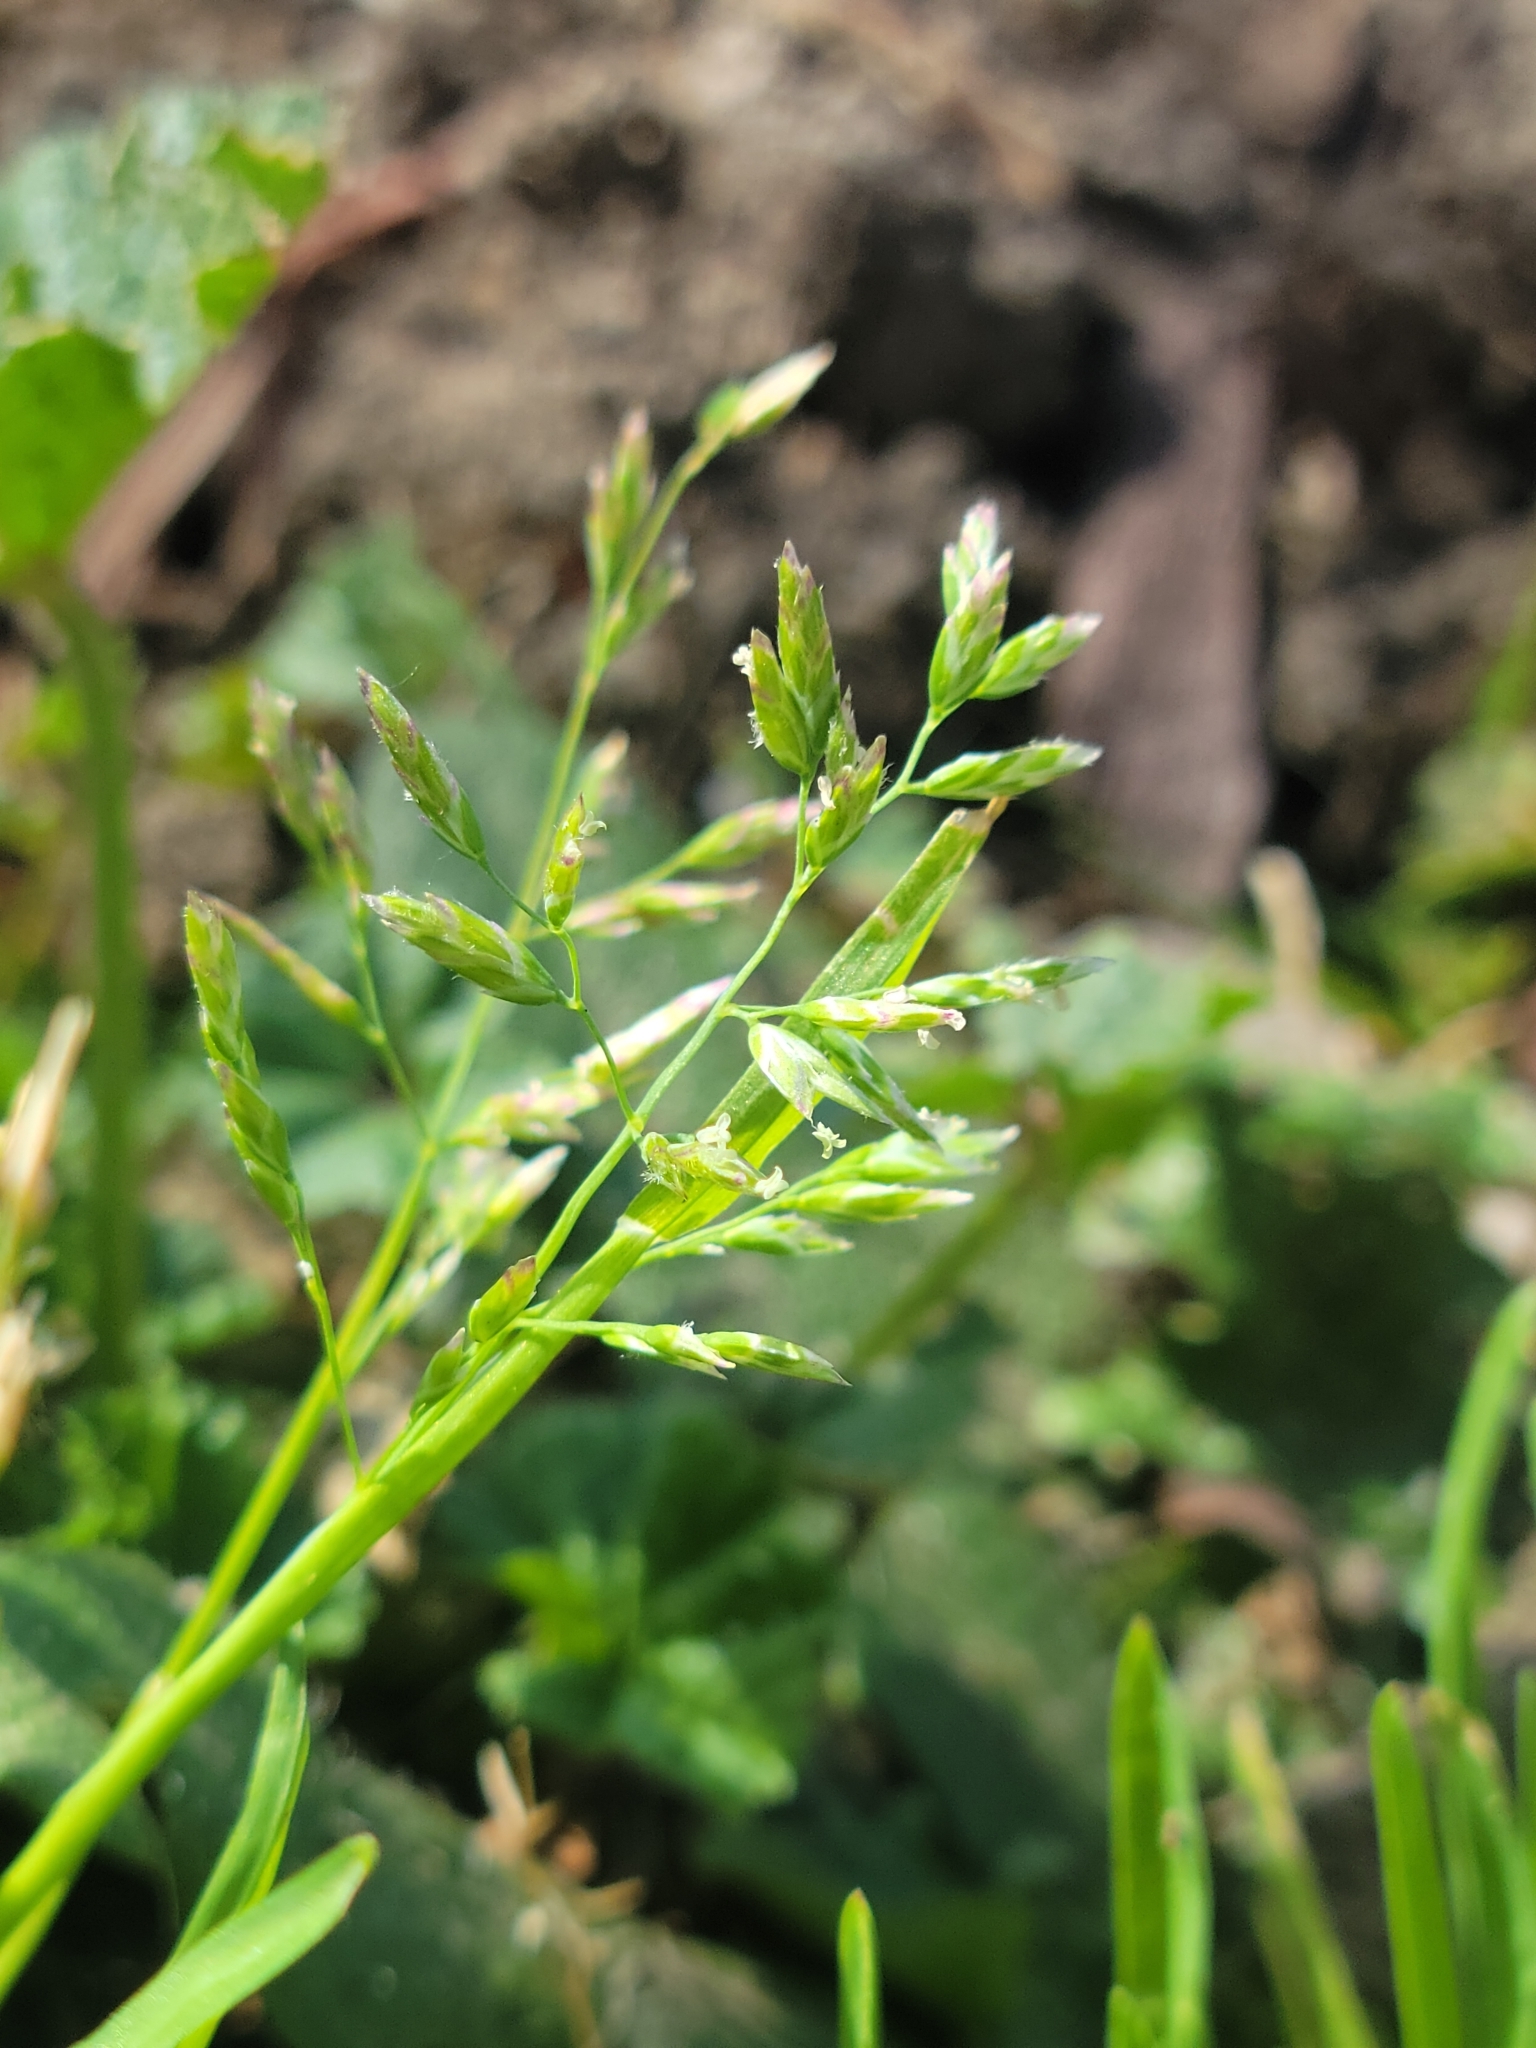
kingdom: Plantae
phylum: Tracheophyta
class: Liliopsida
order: Poales
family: Poaceae
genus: Poa
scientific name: Poa annua
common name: Annual bluegrass
